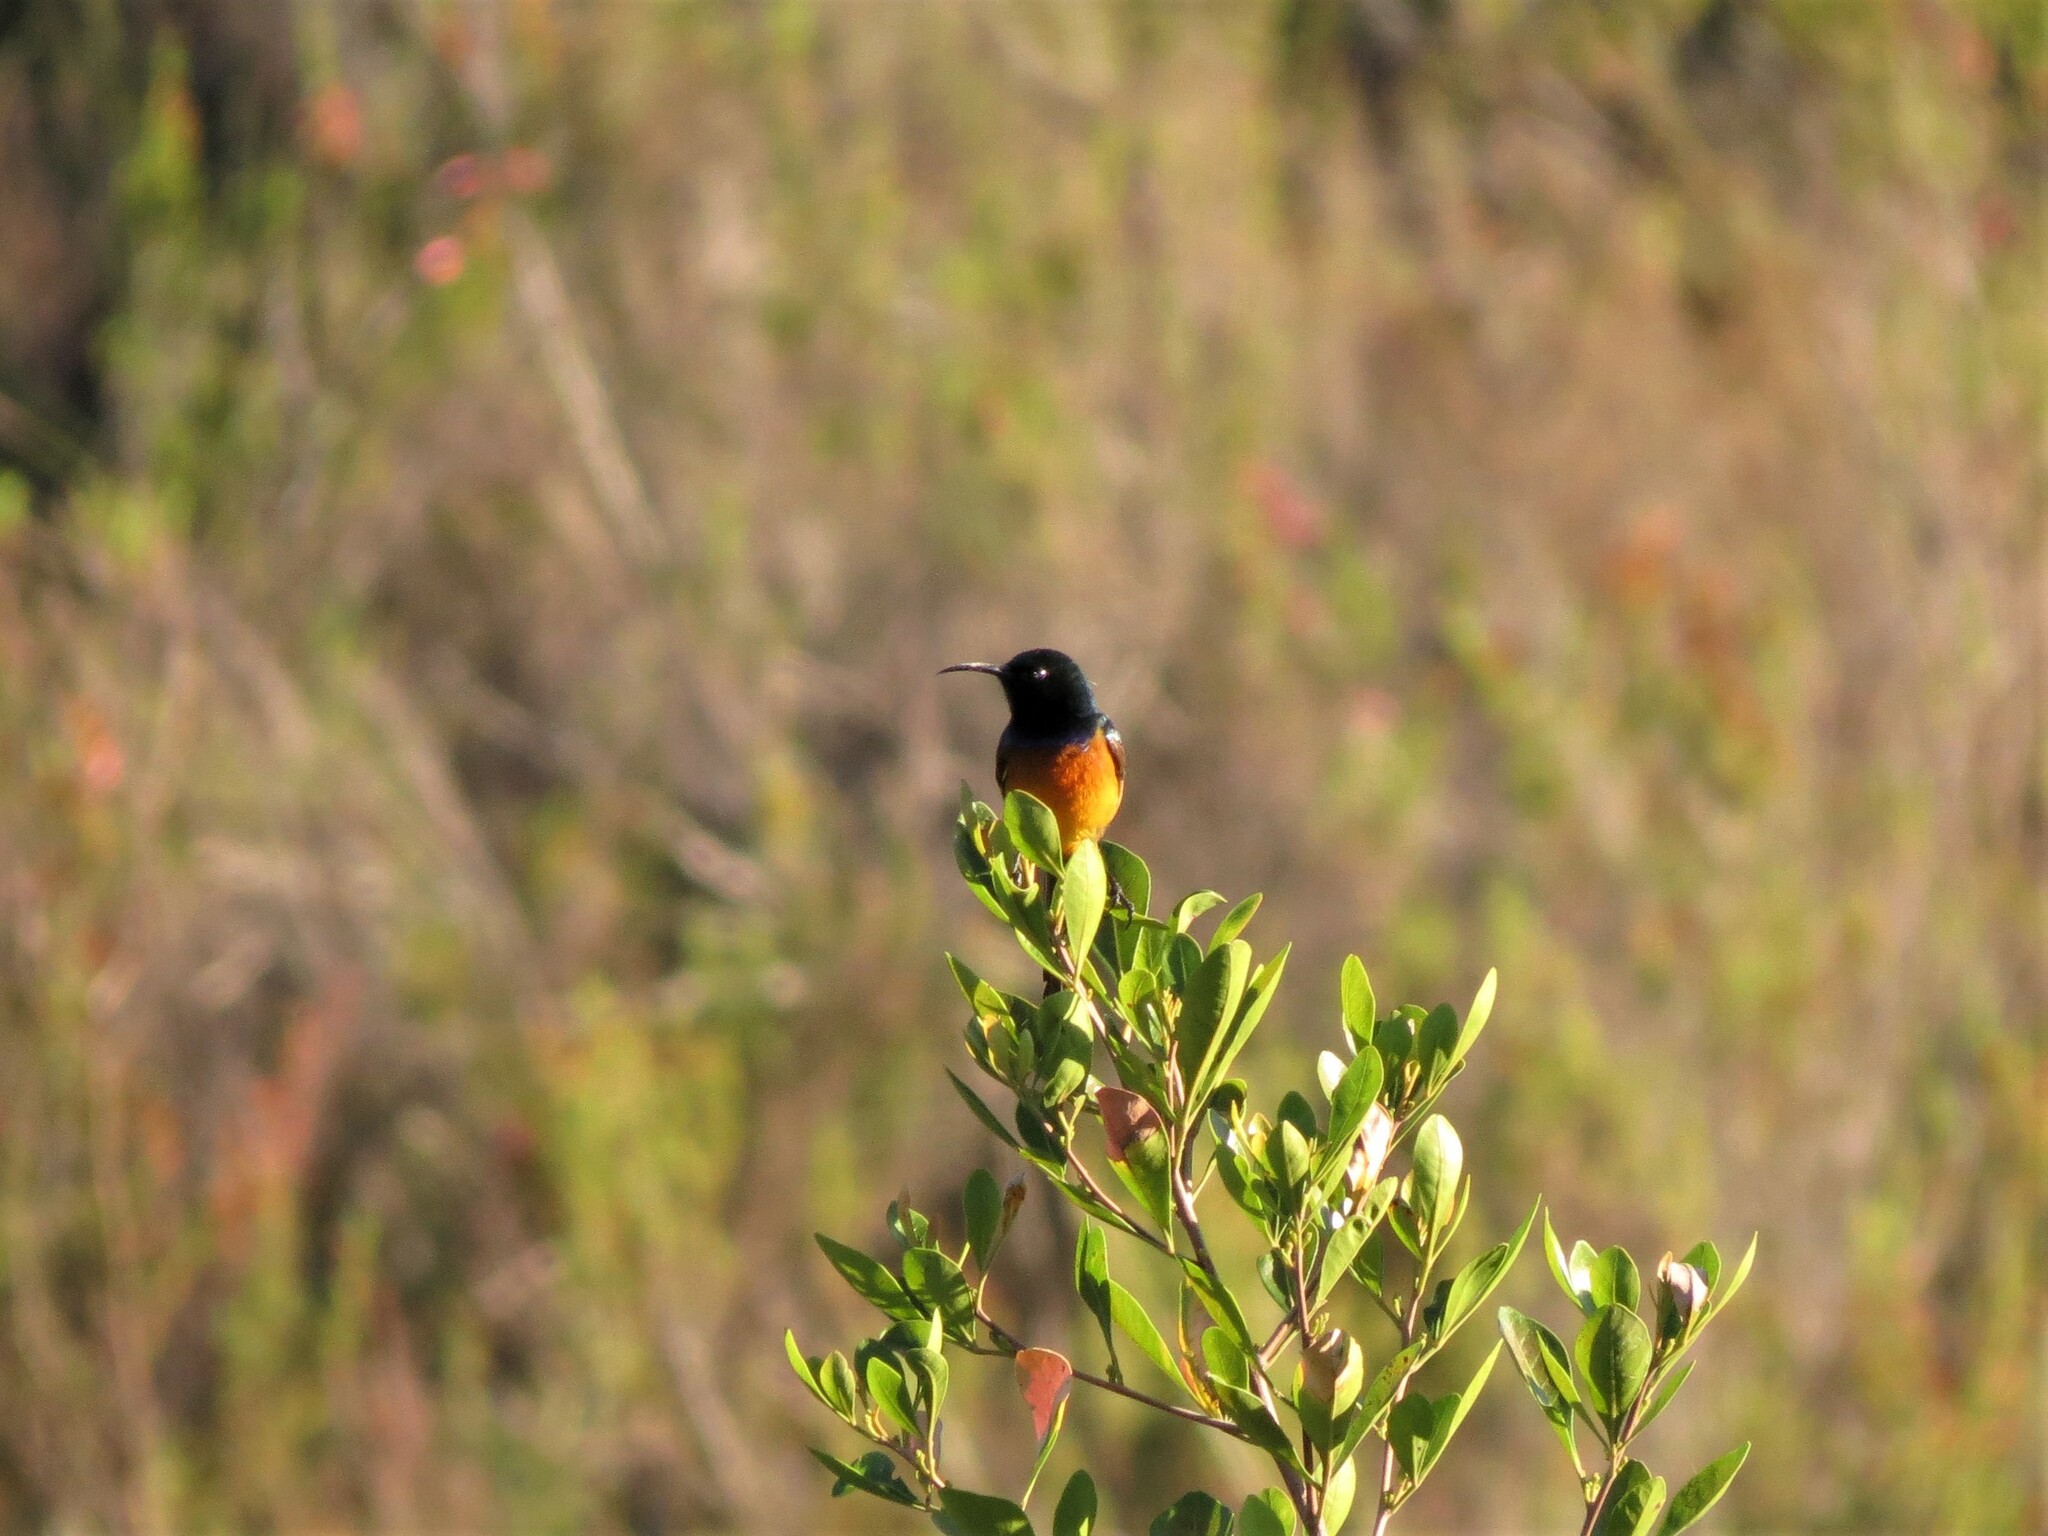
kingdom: Animalia
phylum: Chordata
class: Aves
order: Passeriformes
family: Nectariniidae
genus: Anthobaphes
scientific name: Anthobaphes violacea
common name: Orange-breasted sunbird
